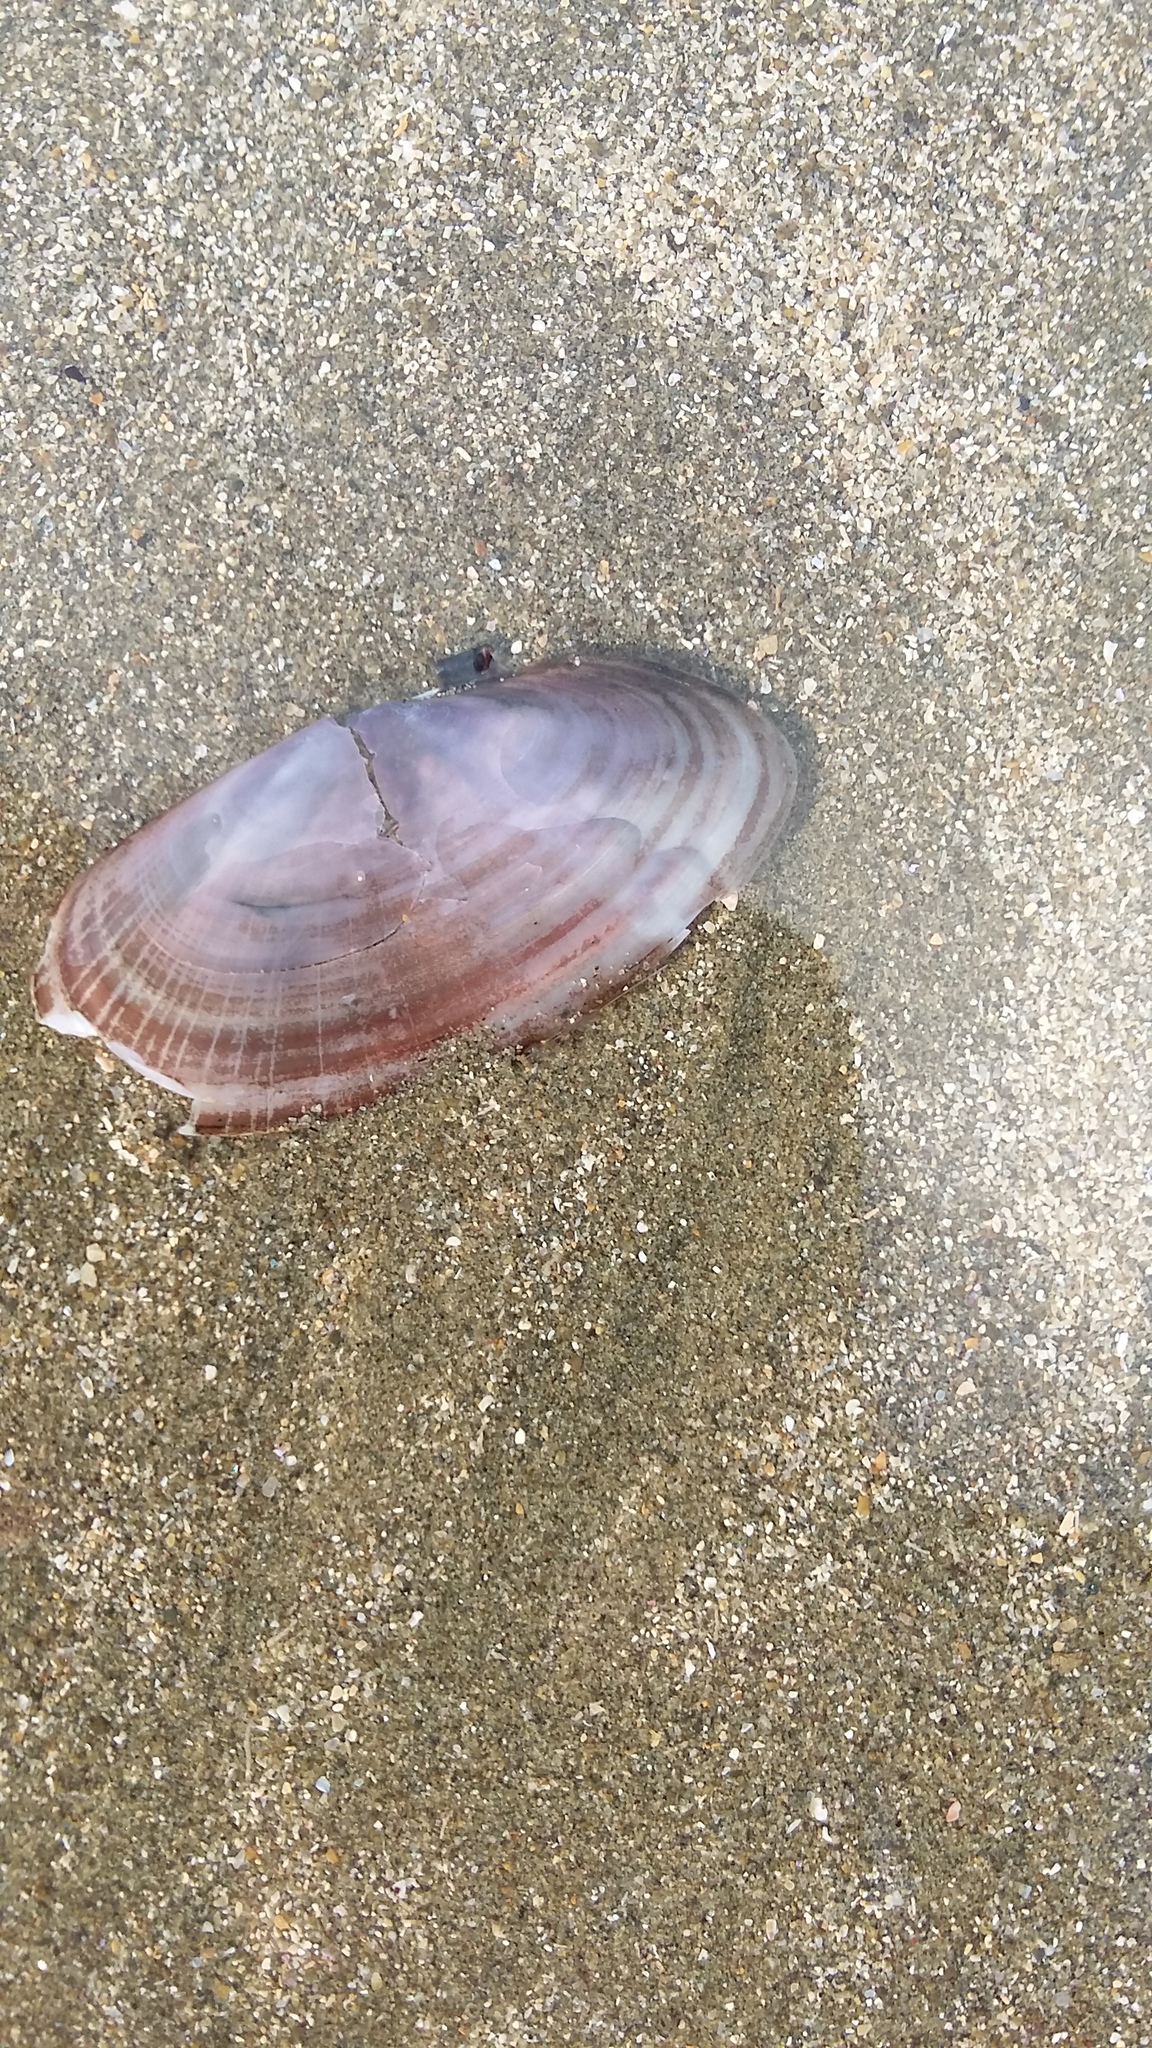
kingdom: Animalia
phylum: Mollusca
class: Bivalvia
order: Cardiida
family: Psammobiidae
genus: Hiatula
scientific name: Hiatula nitida
